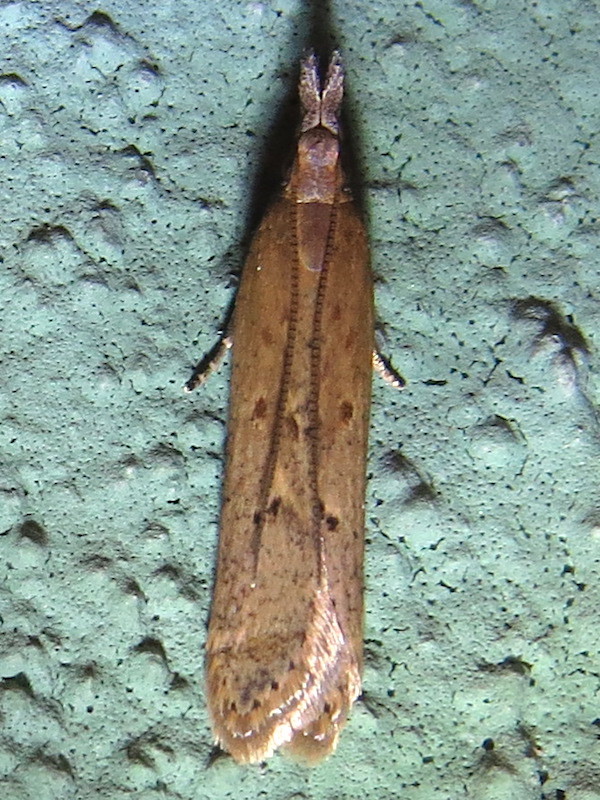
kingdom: Animalia
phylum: Arthropoda
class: Insecta
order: Lepidoptera
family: Gelechiidae
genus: Dichomeris
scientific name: Dichomeris ligulella
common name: Moth
